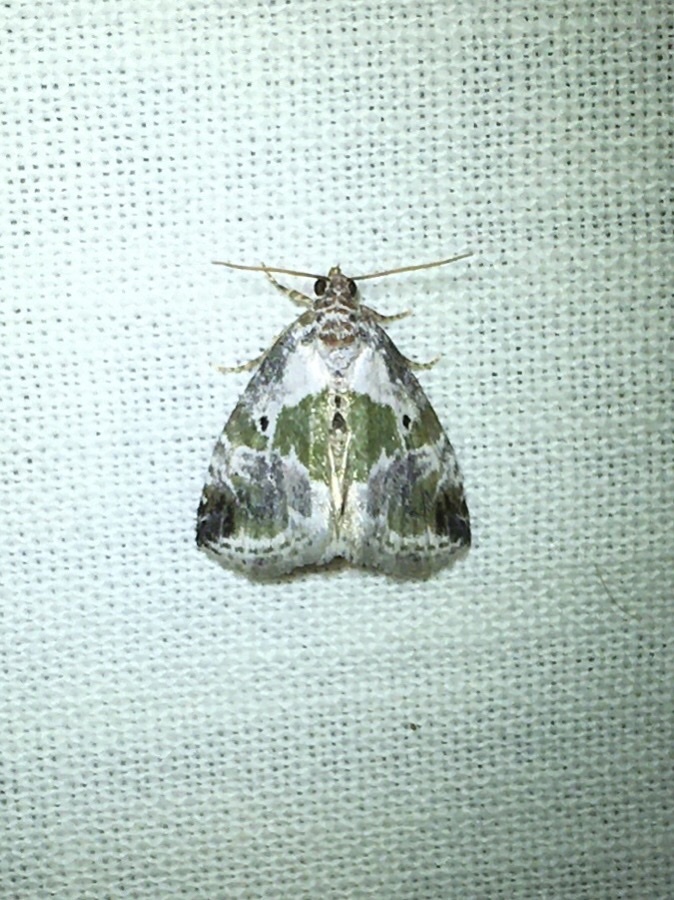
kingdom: Animalia
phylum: Arthropoda
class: Insecta
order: Lepidoptera
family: Noctuidae
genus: Maliattha
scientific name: Maliattha synochitis
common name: Black-dotted glyph
